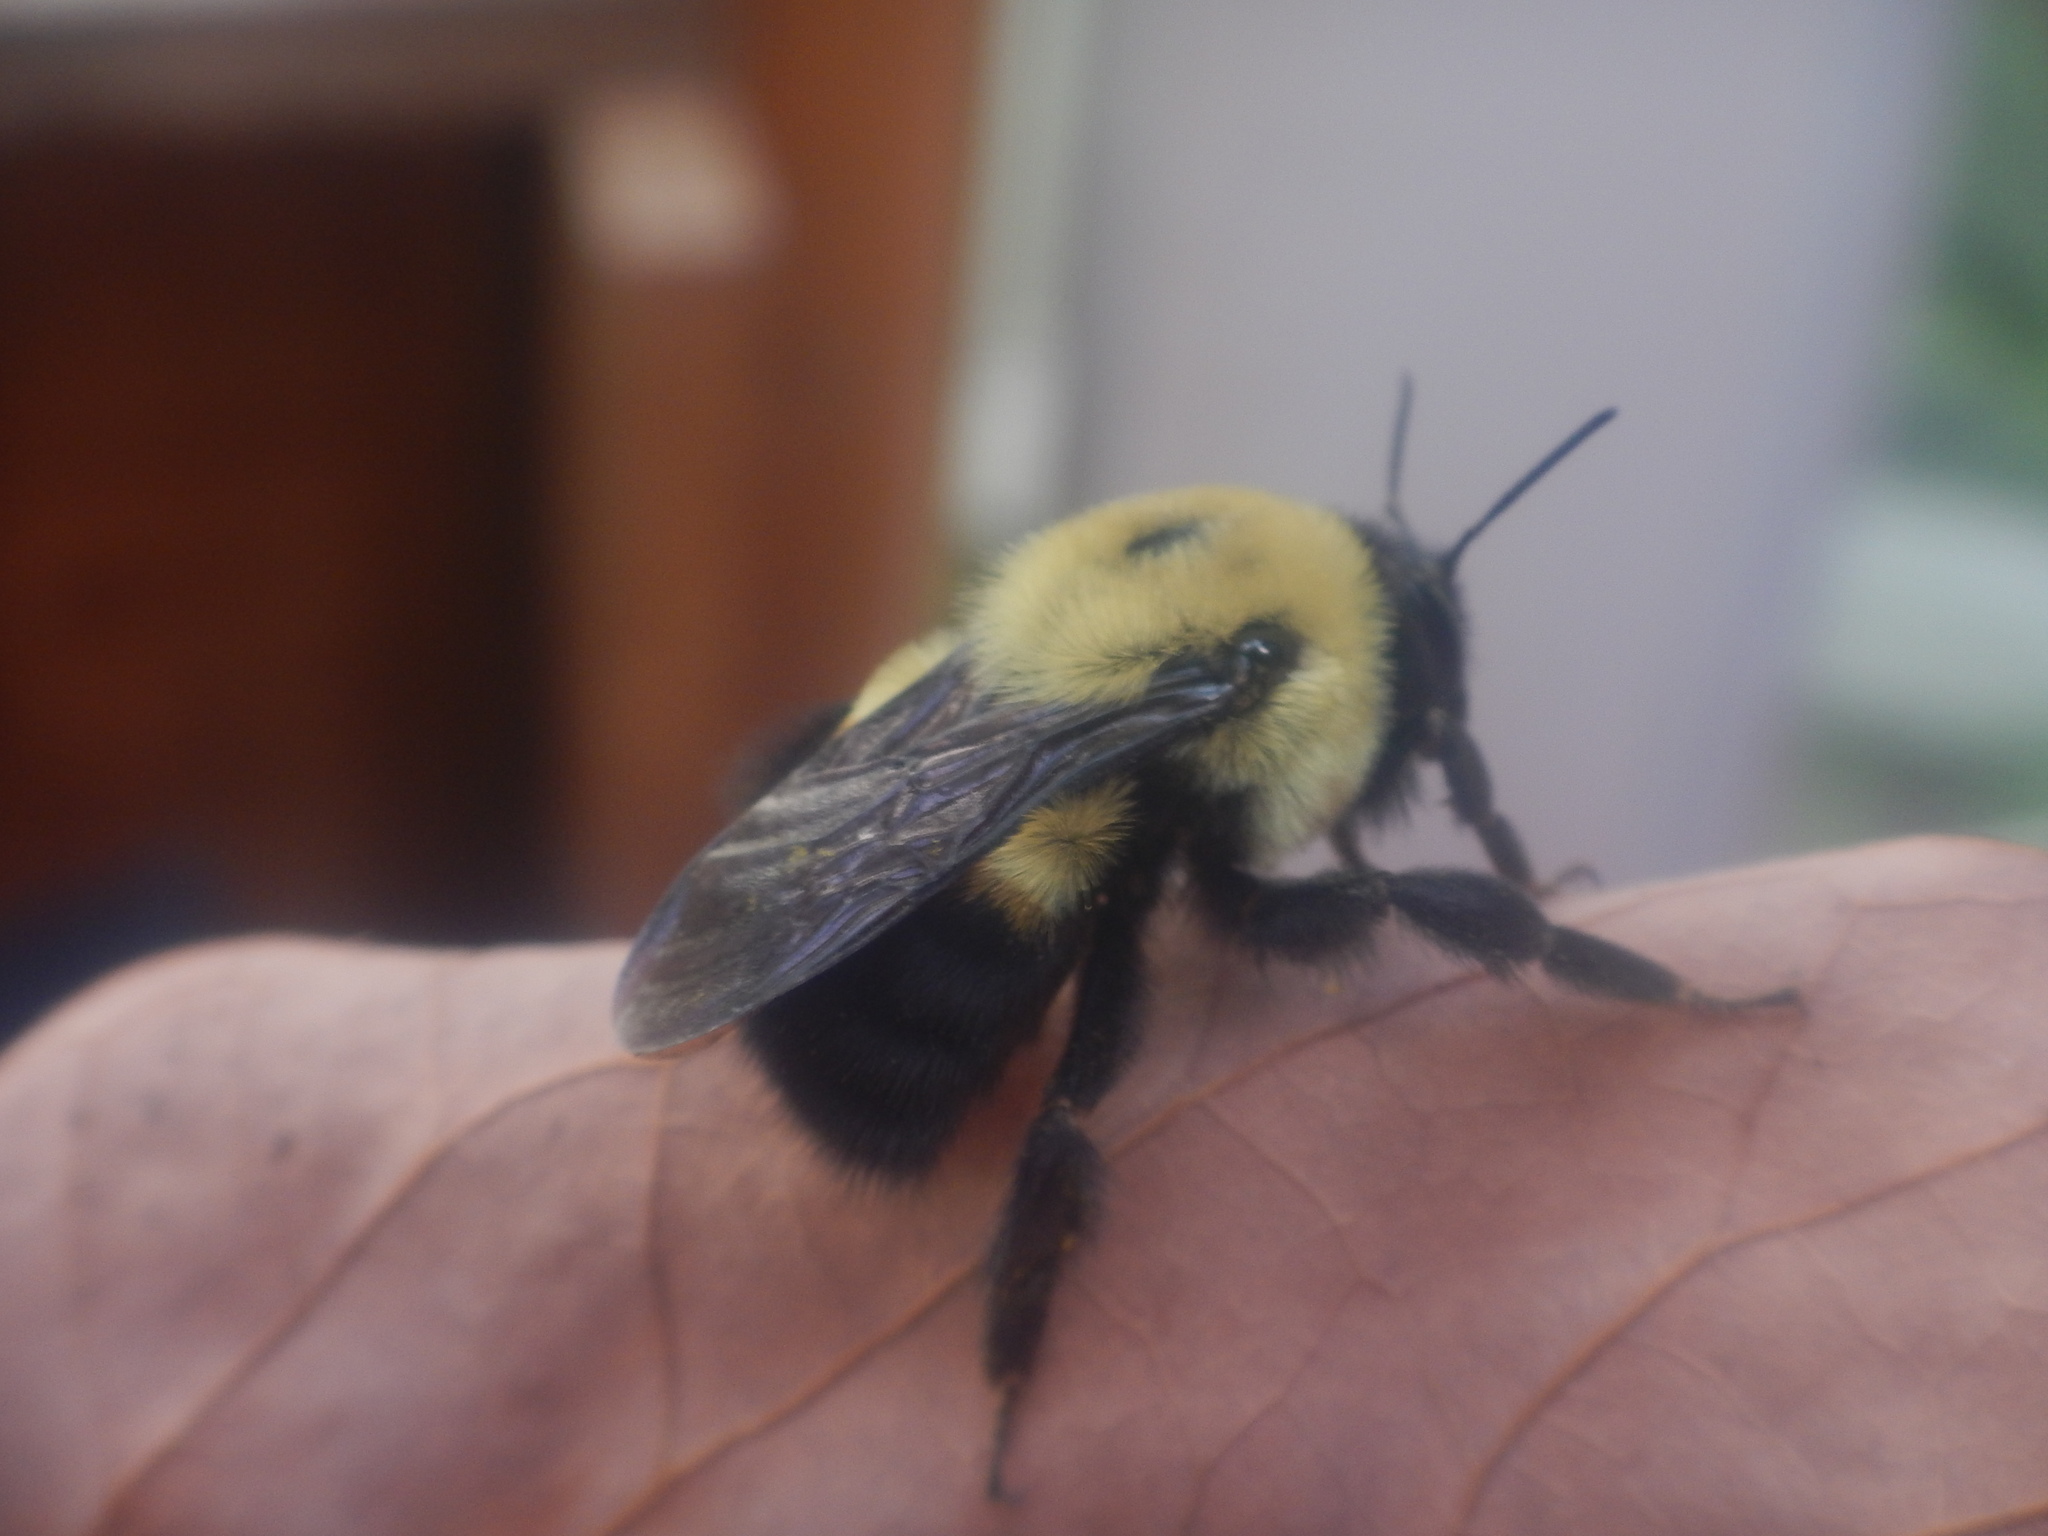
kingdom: Animalia
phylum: Arthropoda
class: Insecta
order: Hymenoptera
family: Apidae
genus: Bombus
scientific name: Bombus griseocollis
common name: Brown-belted bumble bee
